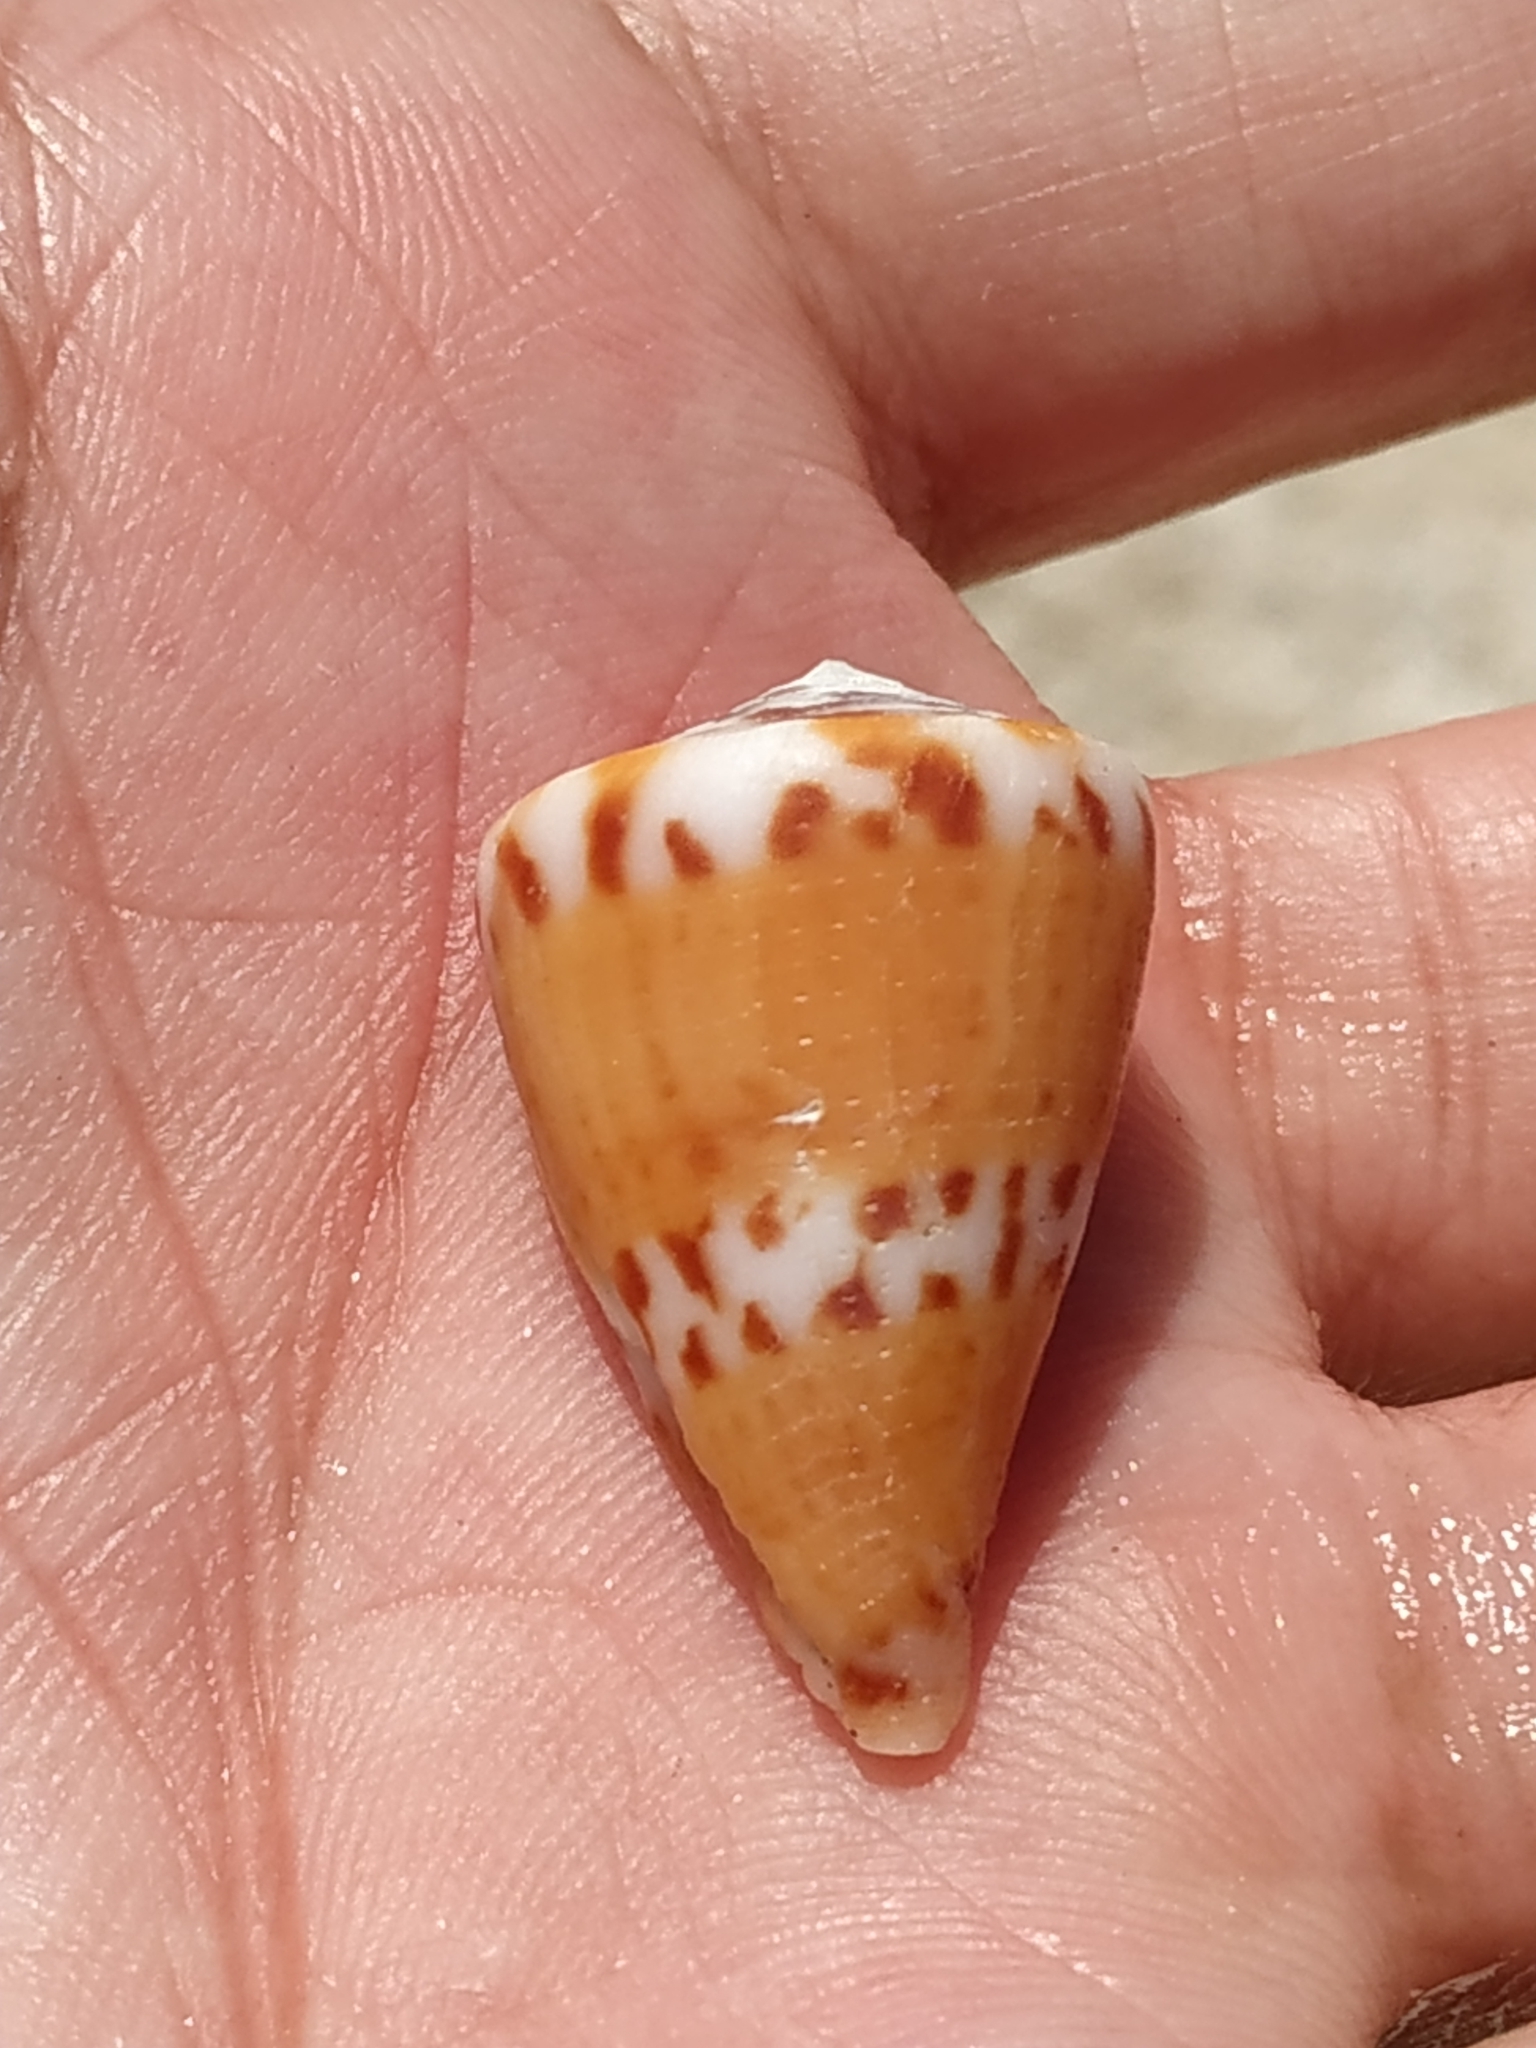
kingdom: Animalia
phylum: Mollusca
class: Gastropoda
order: Neogastropoda
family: Conidae
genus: Conus
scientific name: Conus capitaneus
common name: Captain cone
